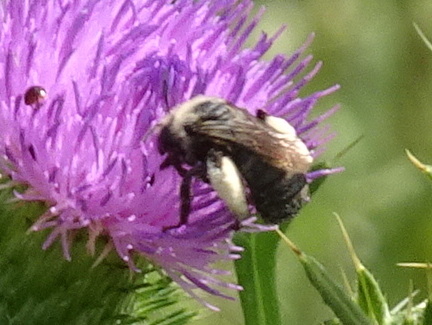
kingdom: Animalia
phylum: Arthropoda
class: Insecta
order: Hymenoptera
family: Apidae
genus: Melissodes
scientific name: Melissodes desponsus
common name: Thistle long-horned bee
